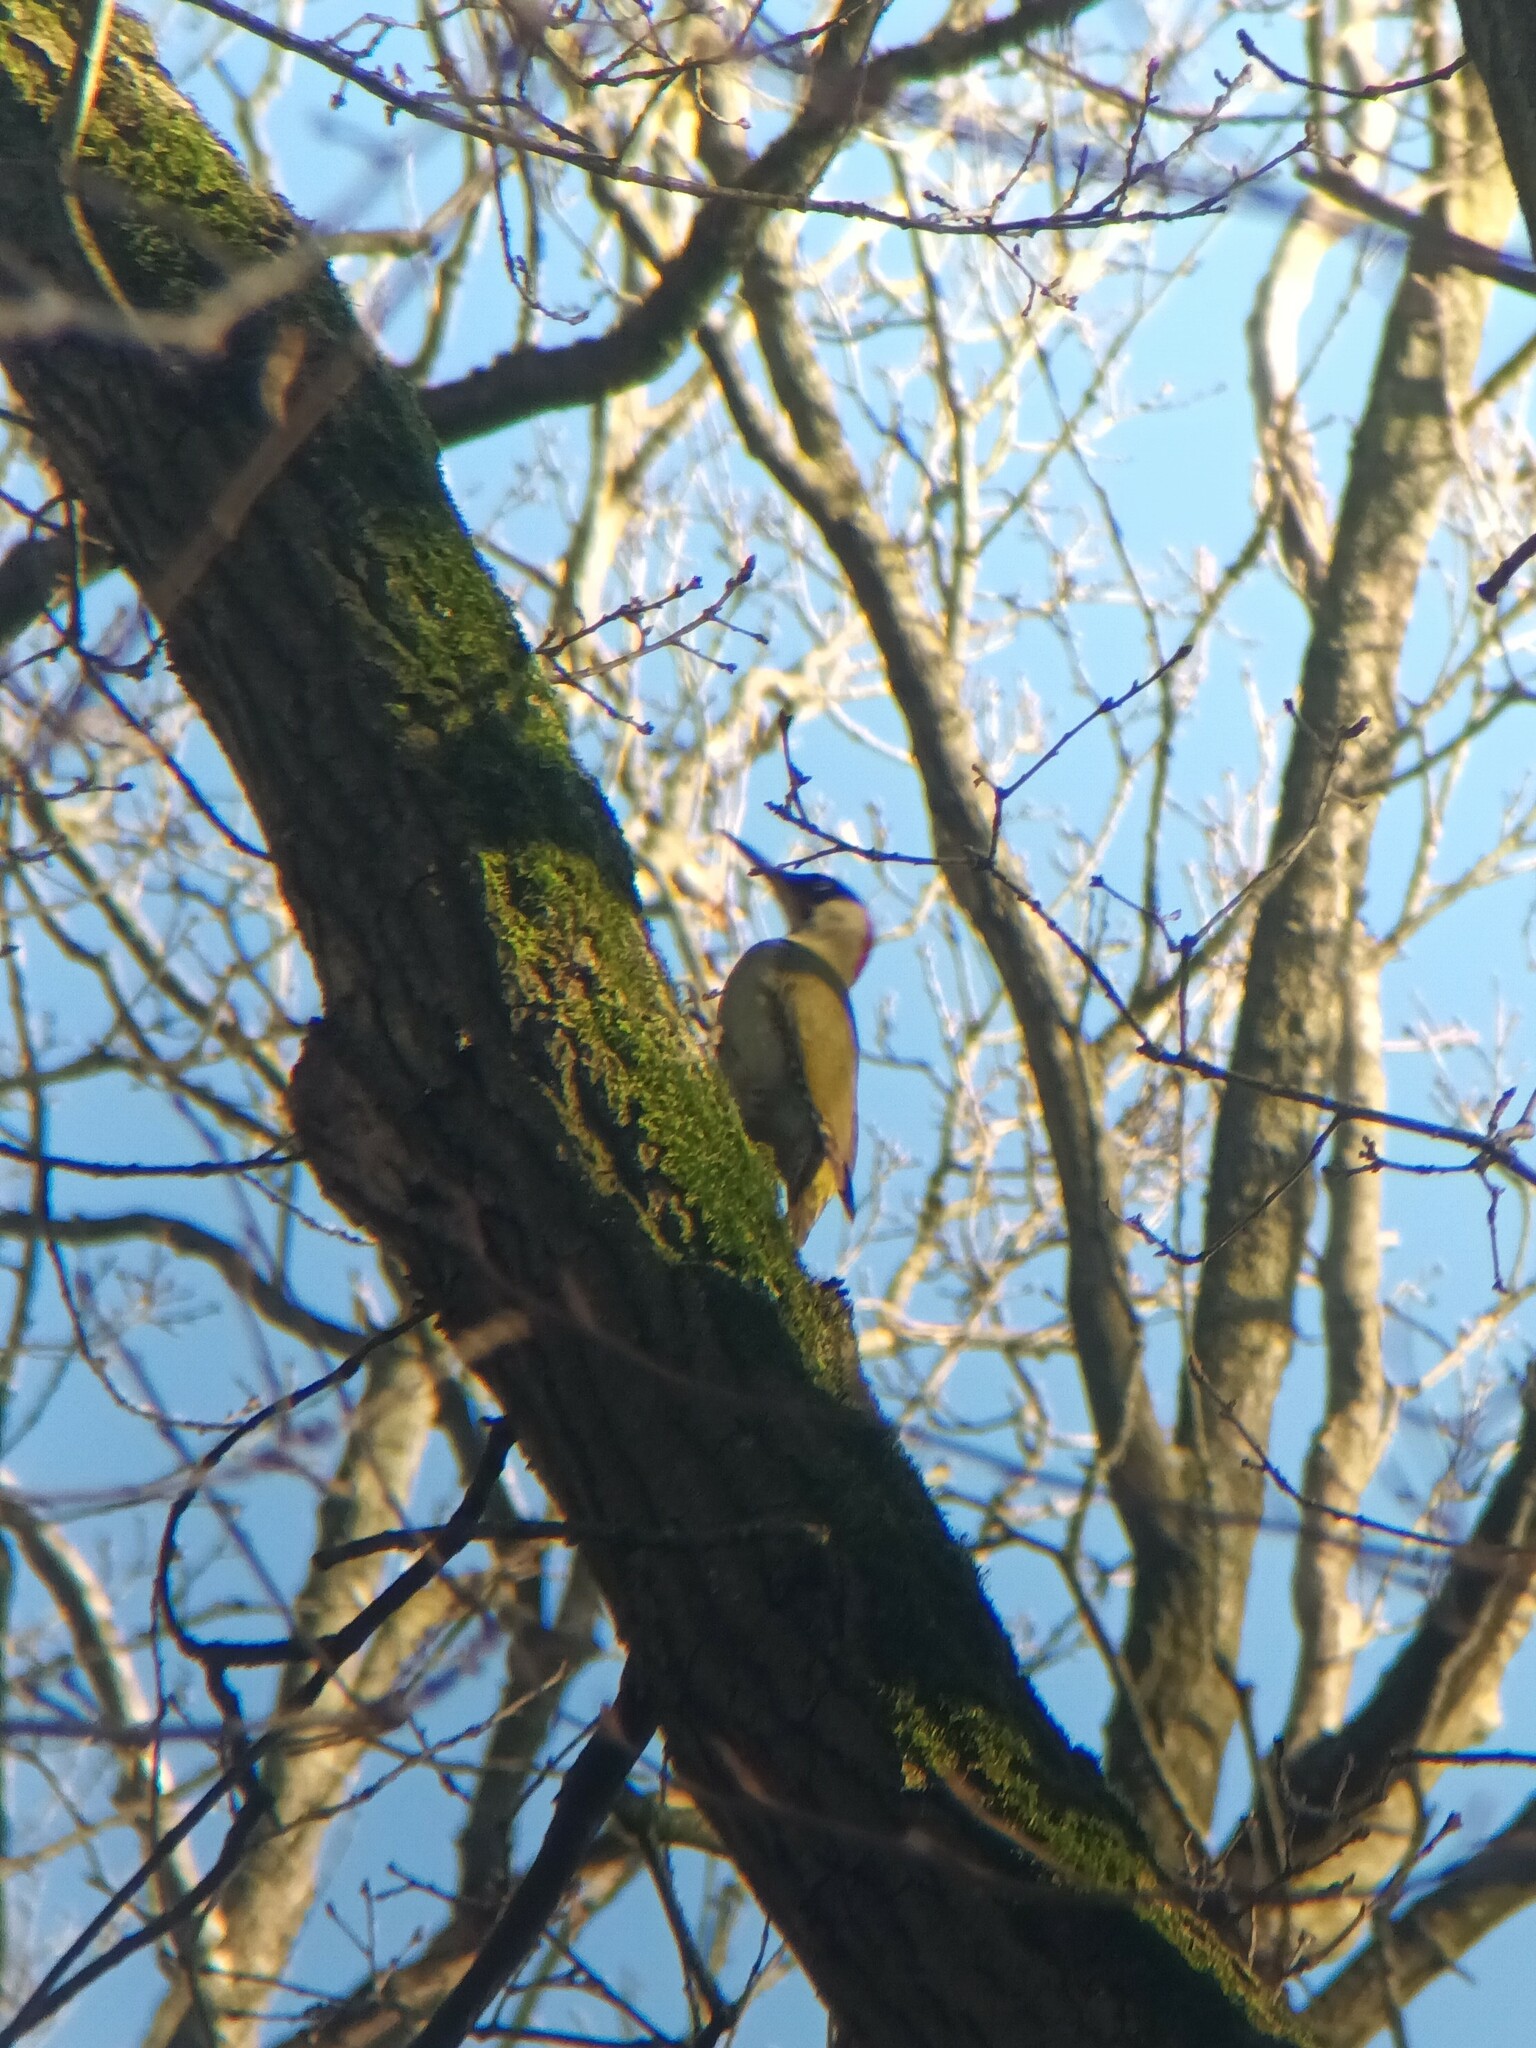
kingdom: Animalia
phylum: Chordata
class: Aves
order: Piciformes
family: Picidae
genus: Picus
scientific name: Picus viridis
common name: European green woodpecker
